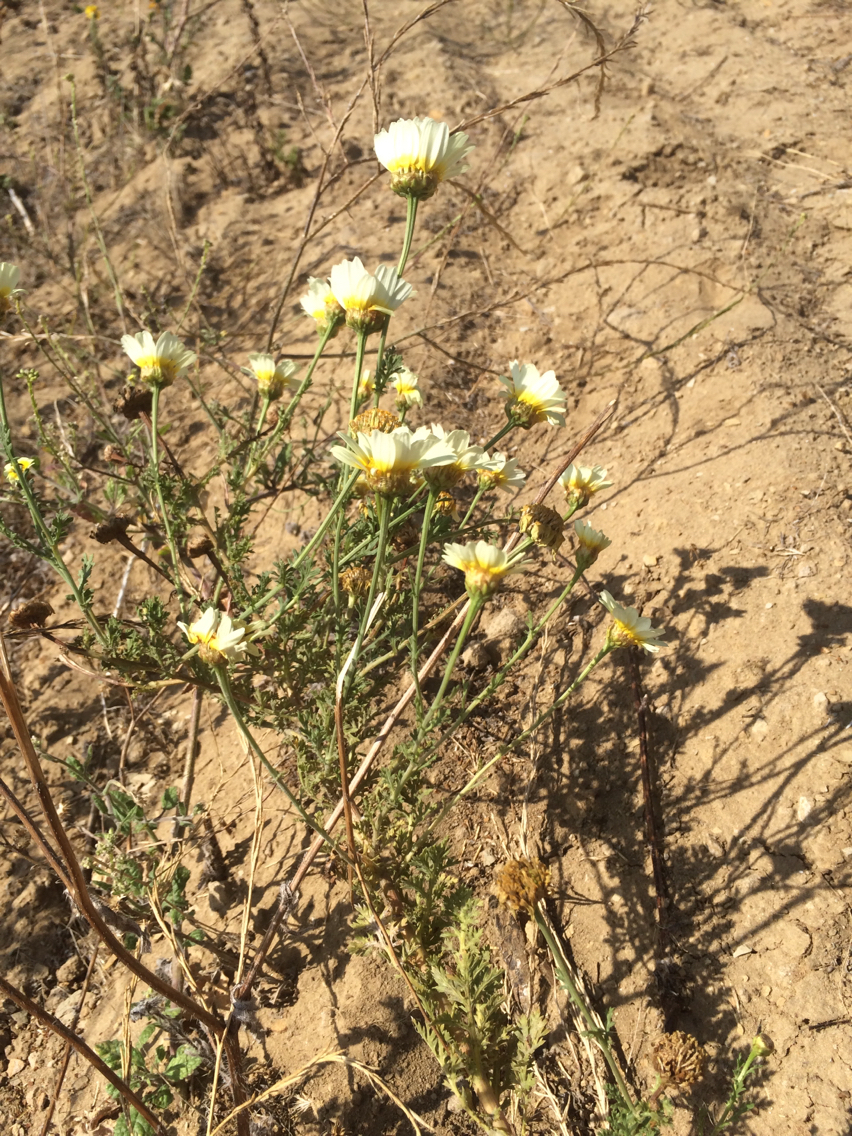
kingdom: Plantae
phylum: Tracheophyta
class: Magnoliopsida
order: Asterales
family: Asteraceae
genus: Glebionis
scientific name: Glebionis coronaria
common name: Crowndaisy
